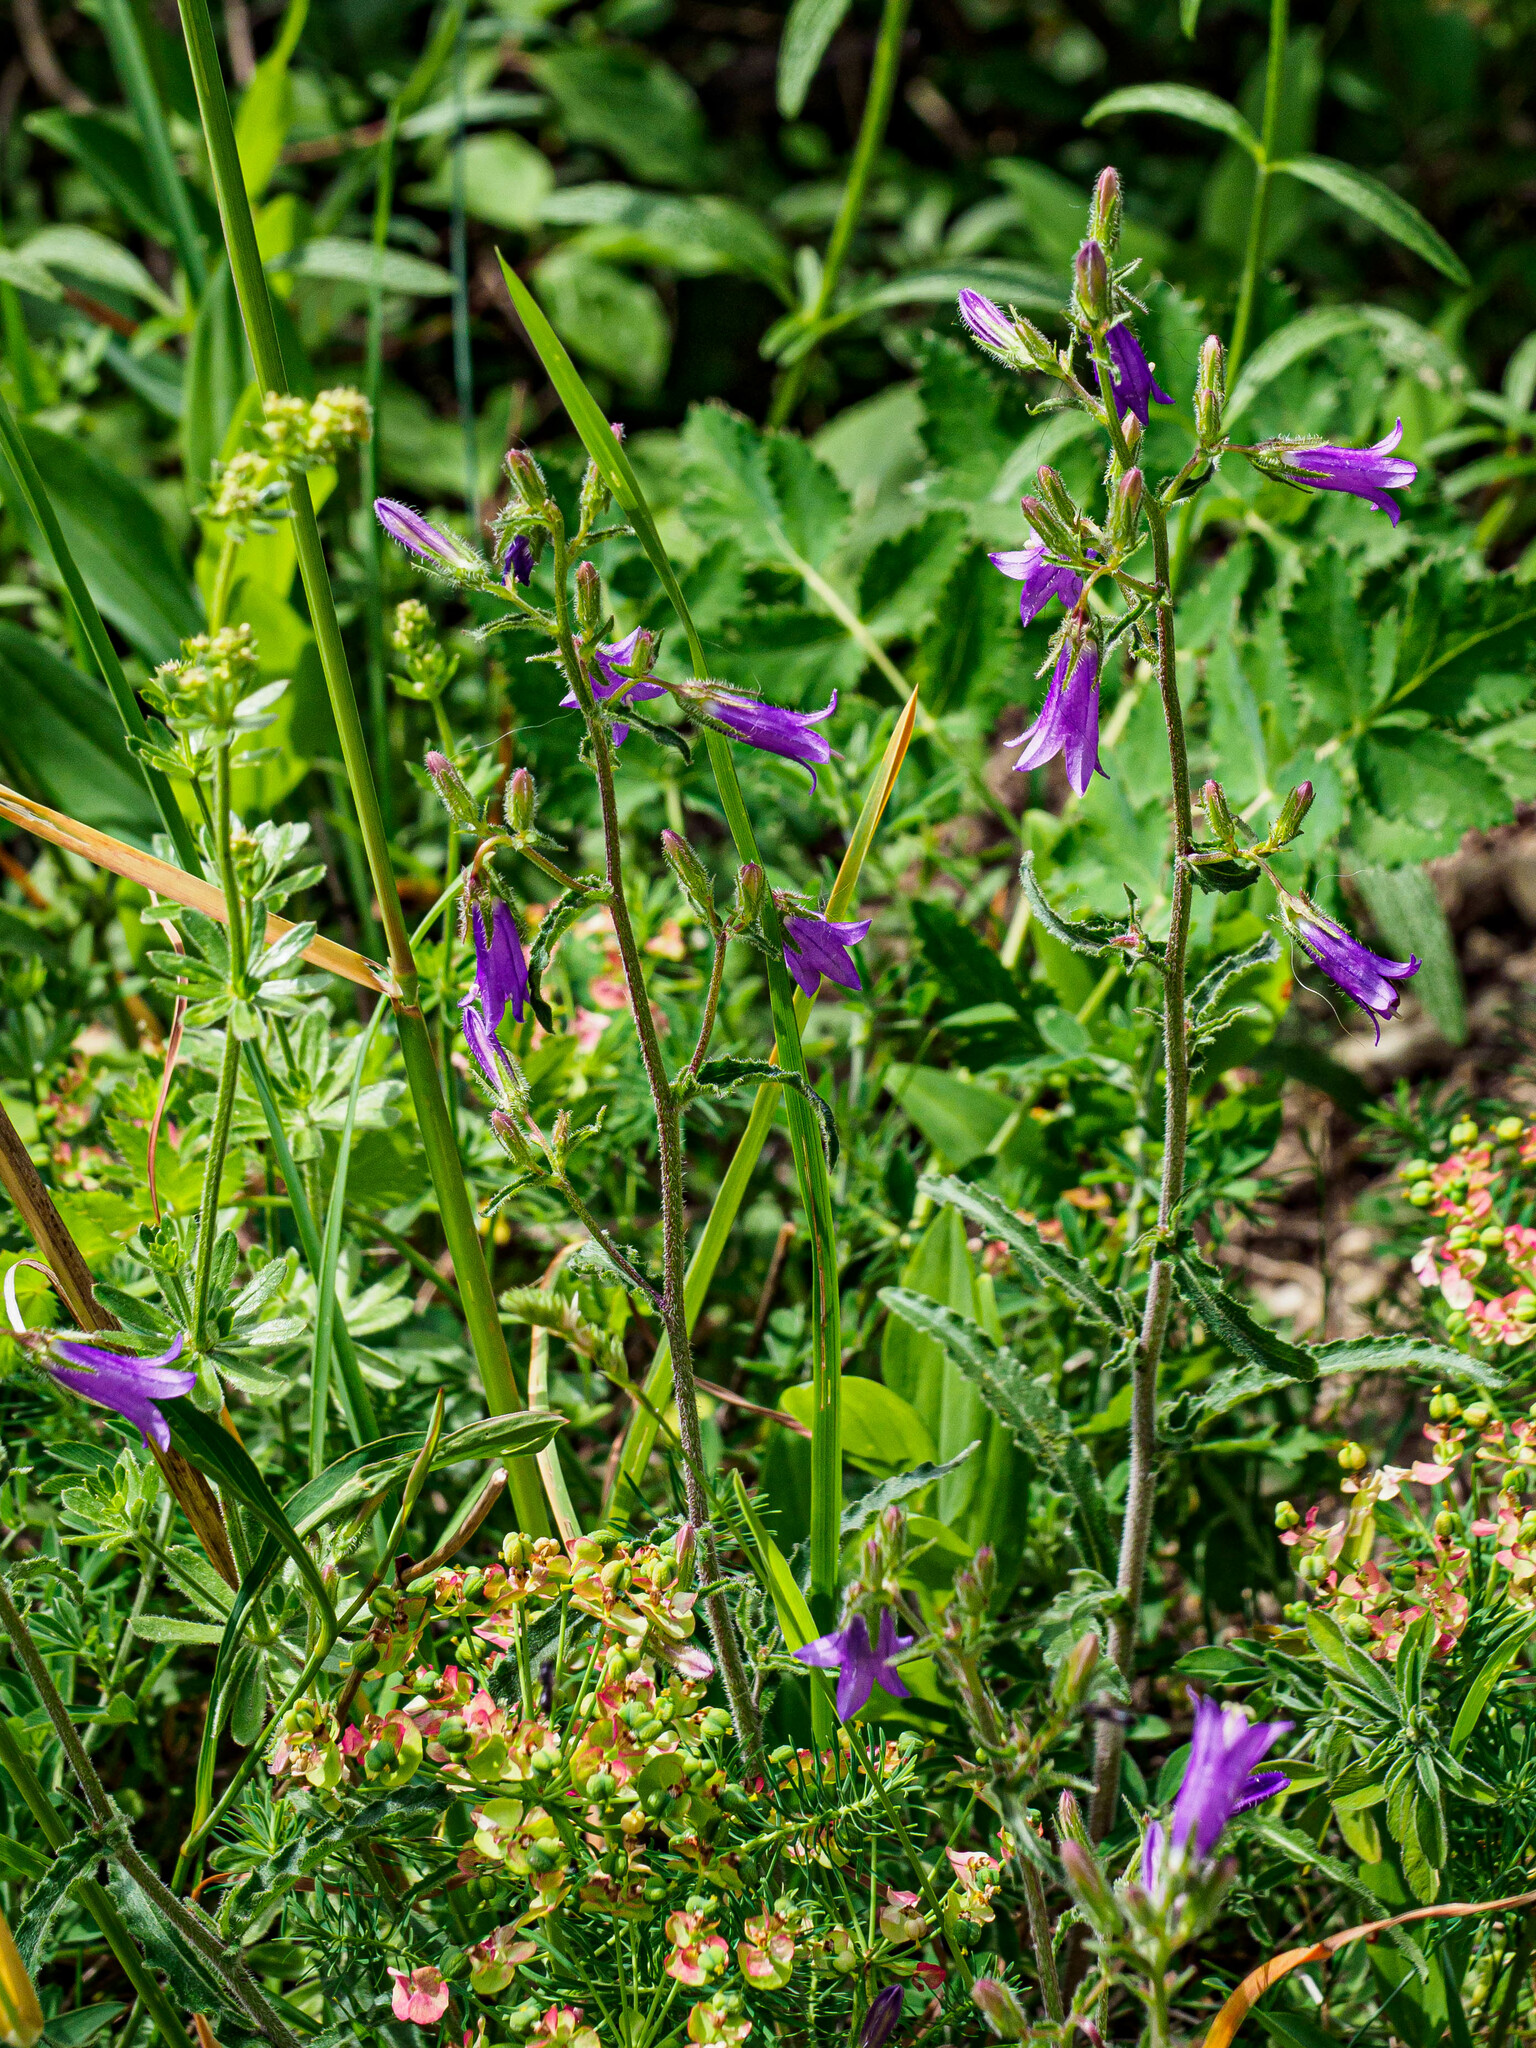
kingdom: Plantae
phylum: Tracheophyta
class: Magnoliopsida
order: Asterales
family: Campanulaceae
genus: Campanula
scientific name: Campanula sibirica
